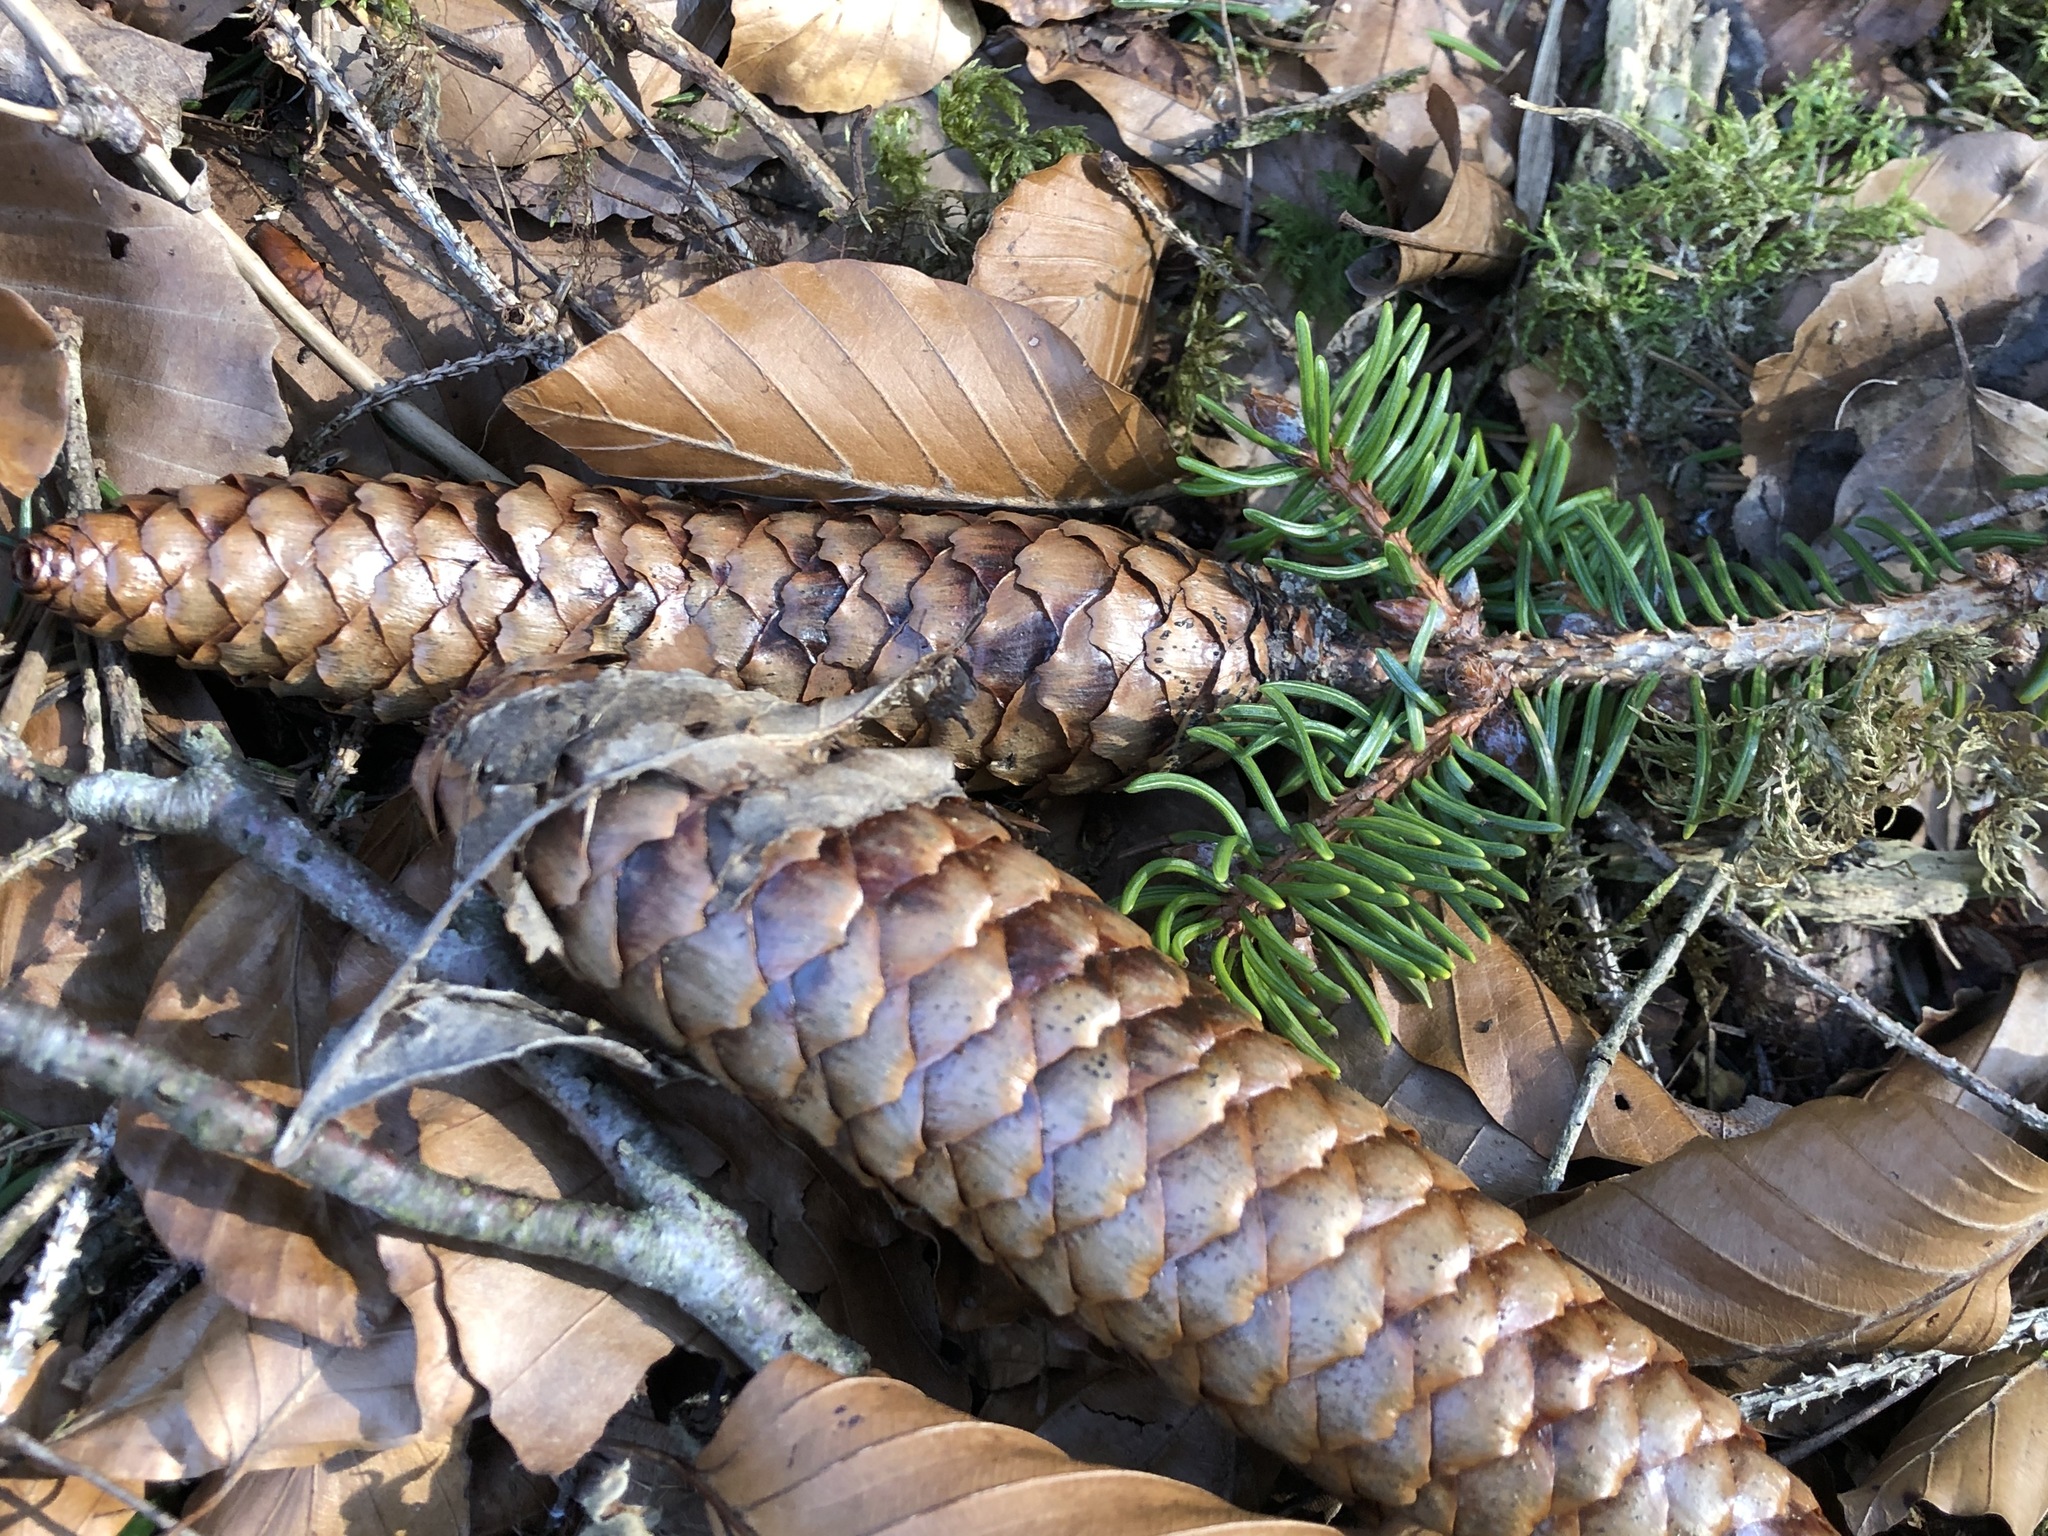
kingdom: Plantae
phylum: Tracheophyta
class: Pinopsida
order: Pinales
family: Pinaceae
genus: Picea
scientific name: Picea abies
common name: Norway spruce
